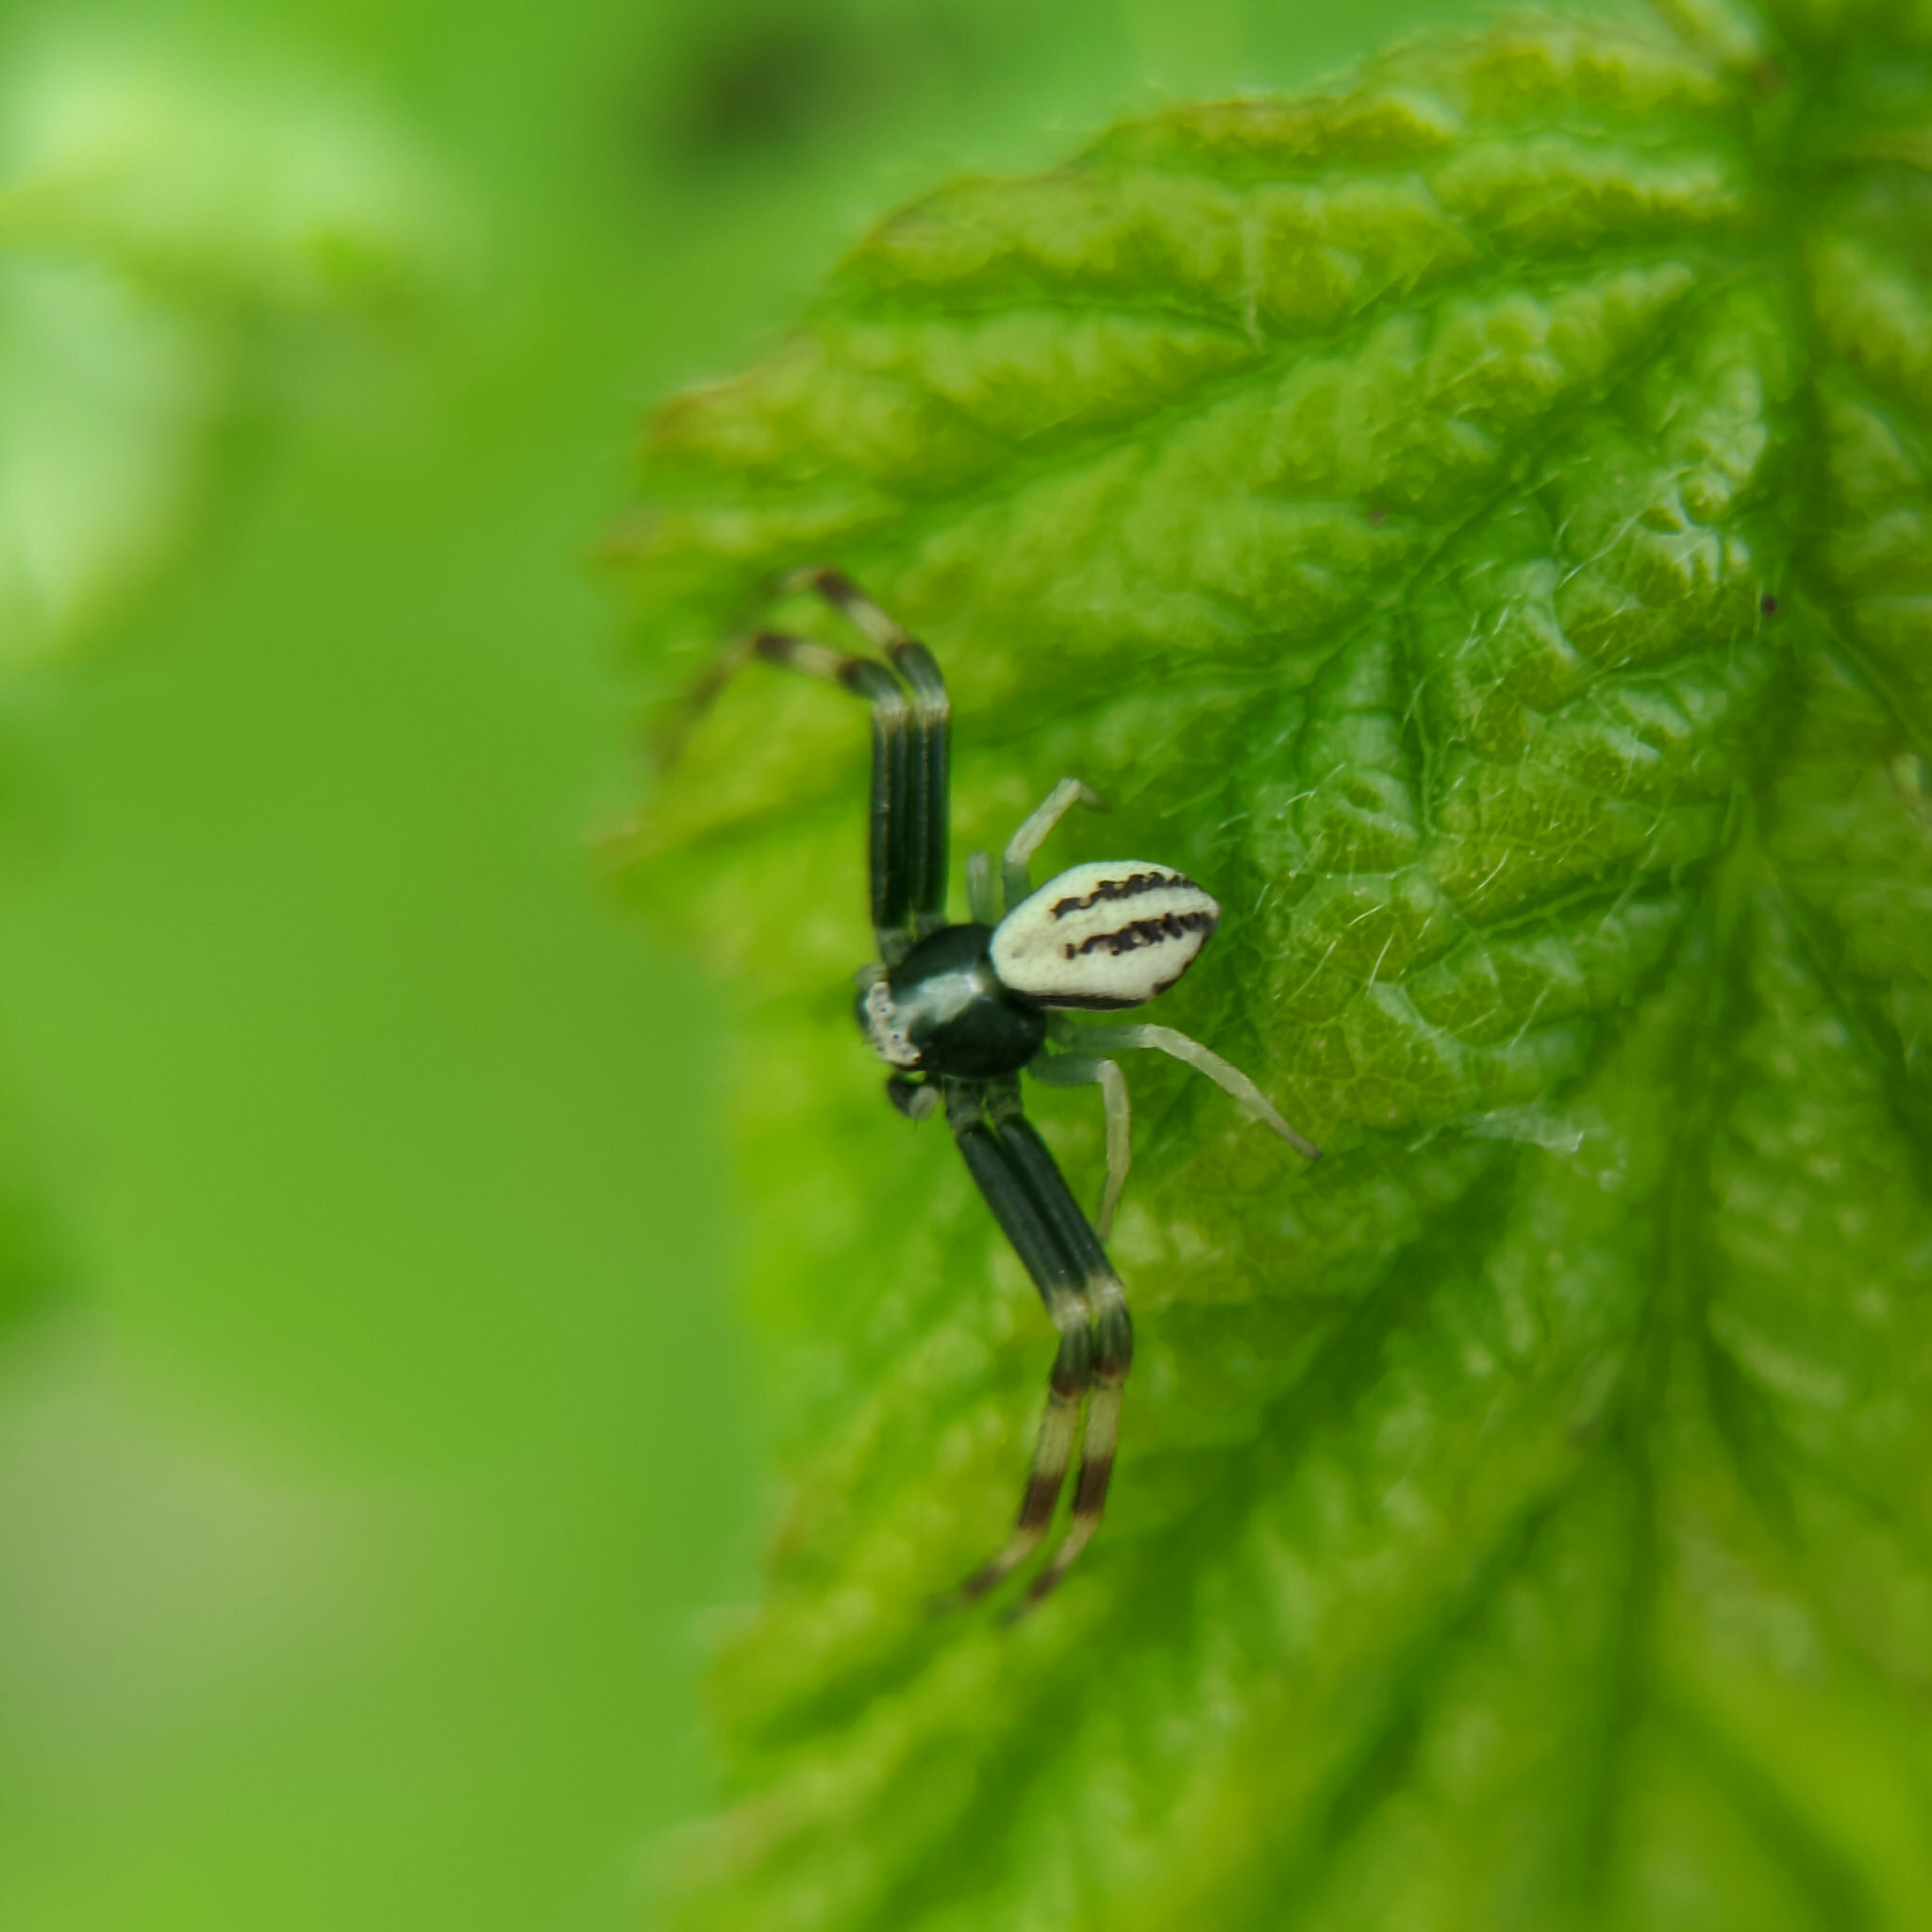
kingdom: Animalia
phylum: Arthropoda
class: Arachnida
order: Araneae
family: Thomisidae
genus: Misumena
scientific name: Misumena vatia
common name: Goldenrod crab spider
